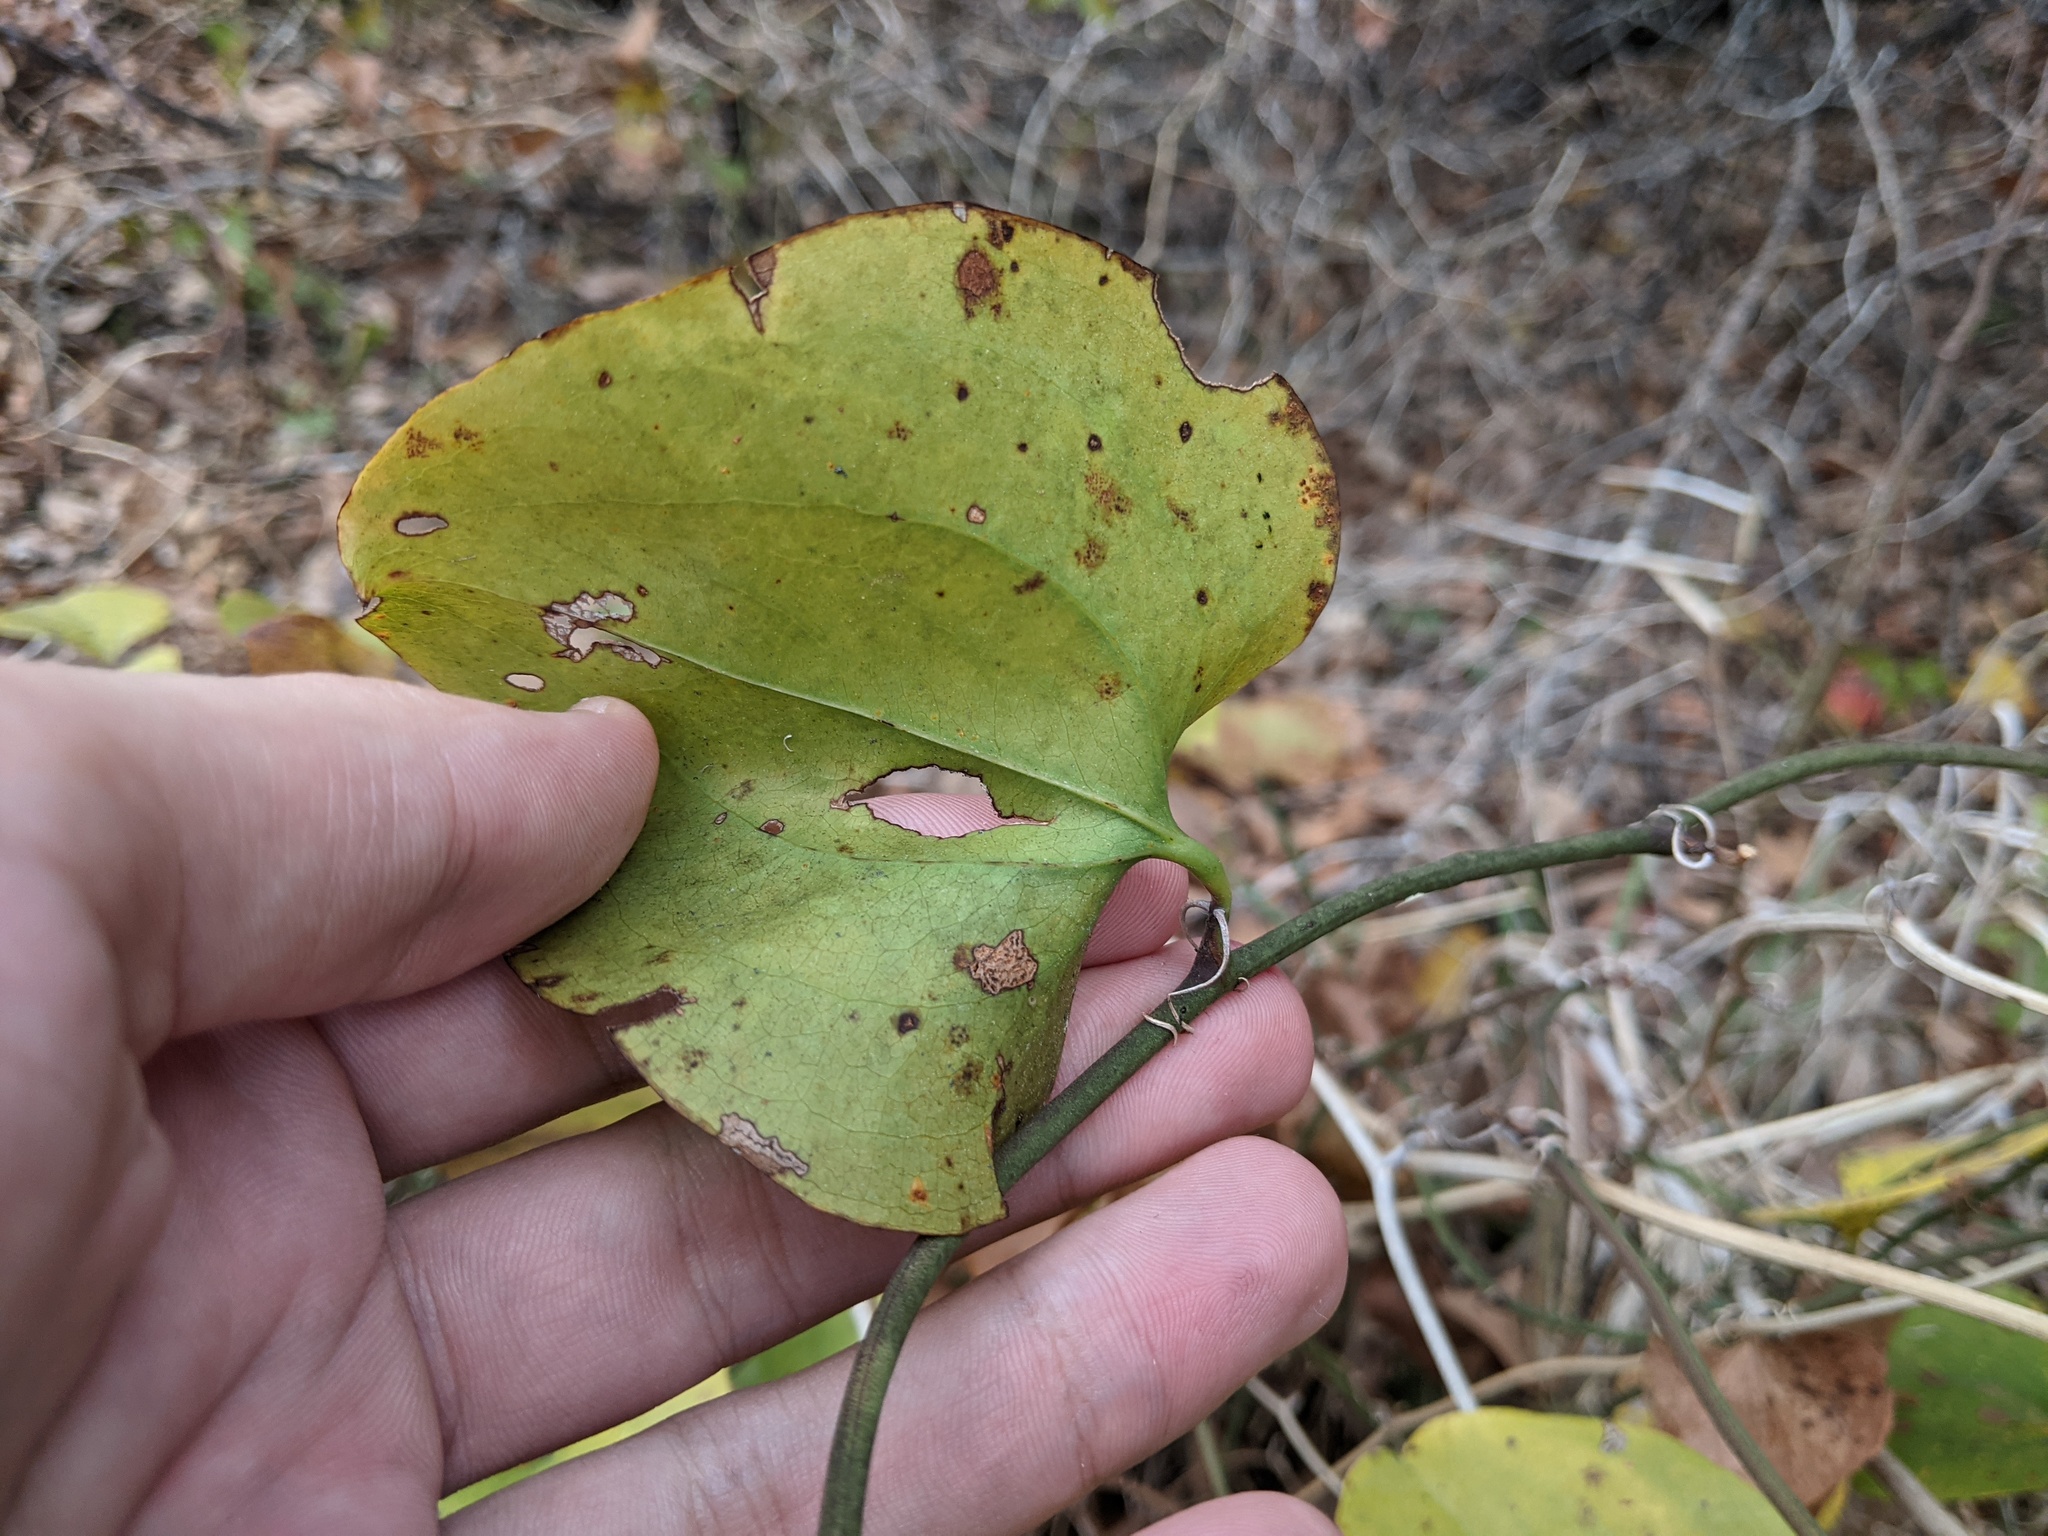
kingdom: Plantae
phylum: Tracheophyta
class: Liliopsida
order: Liliales
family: Smilacaceae
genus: Smilax
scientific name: Smilax rotundifolia
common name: Bullbriar
